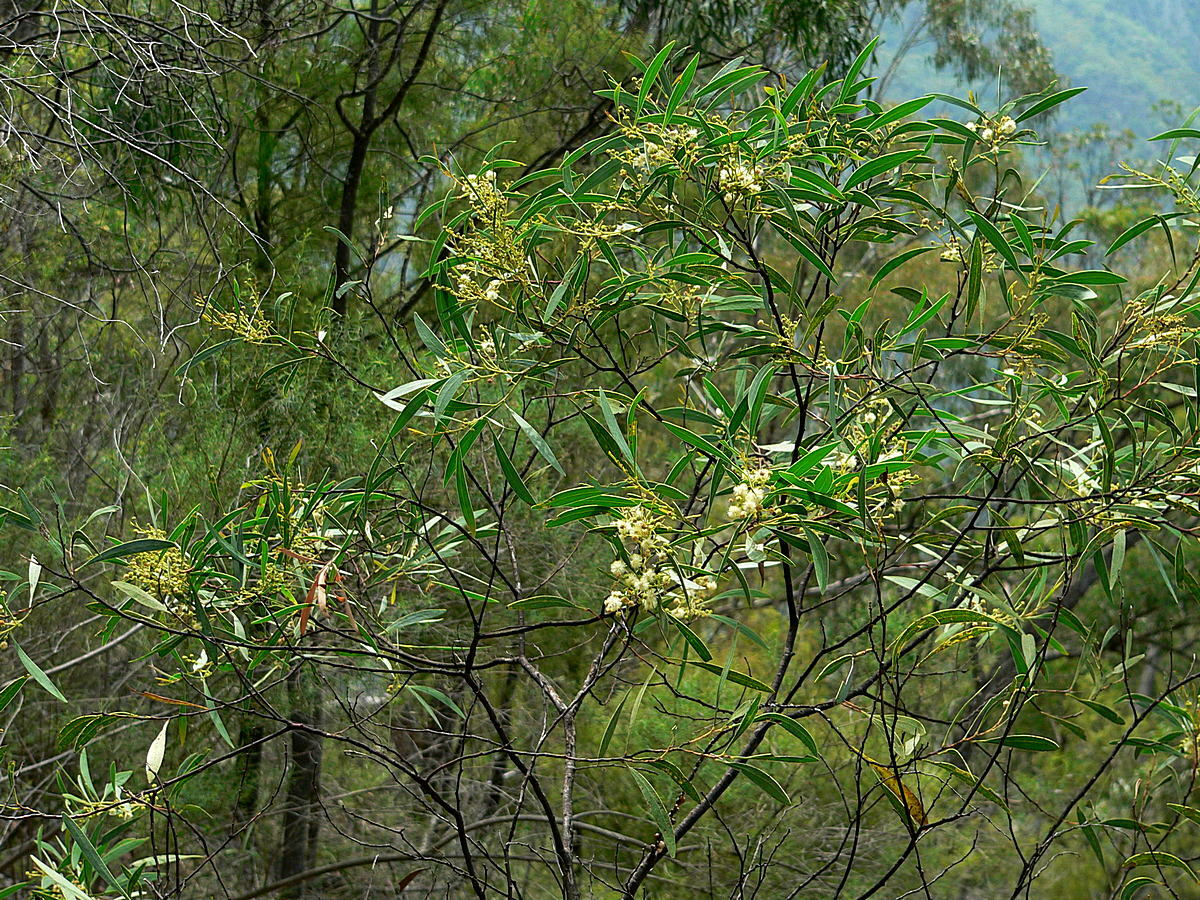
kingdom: Plantae
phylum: Tracheophyta
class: Magnoliopsida
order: Fabales
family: Fabaceae
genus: Acacia
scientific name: Acacia penninervis
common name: Hickory wattle
